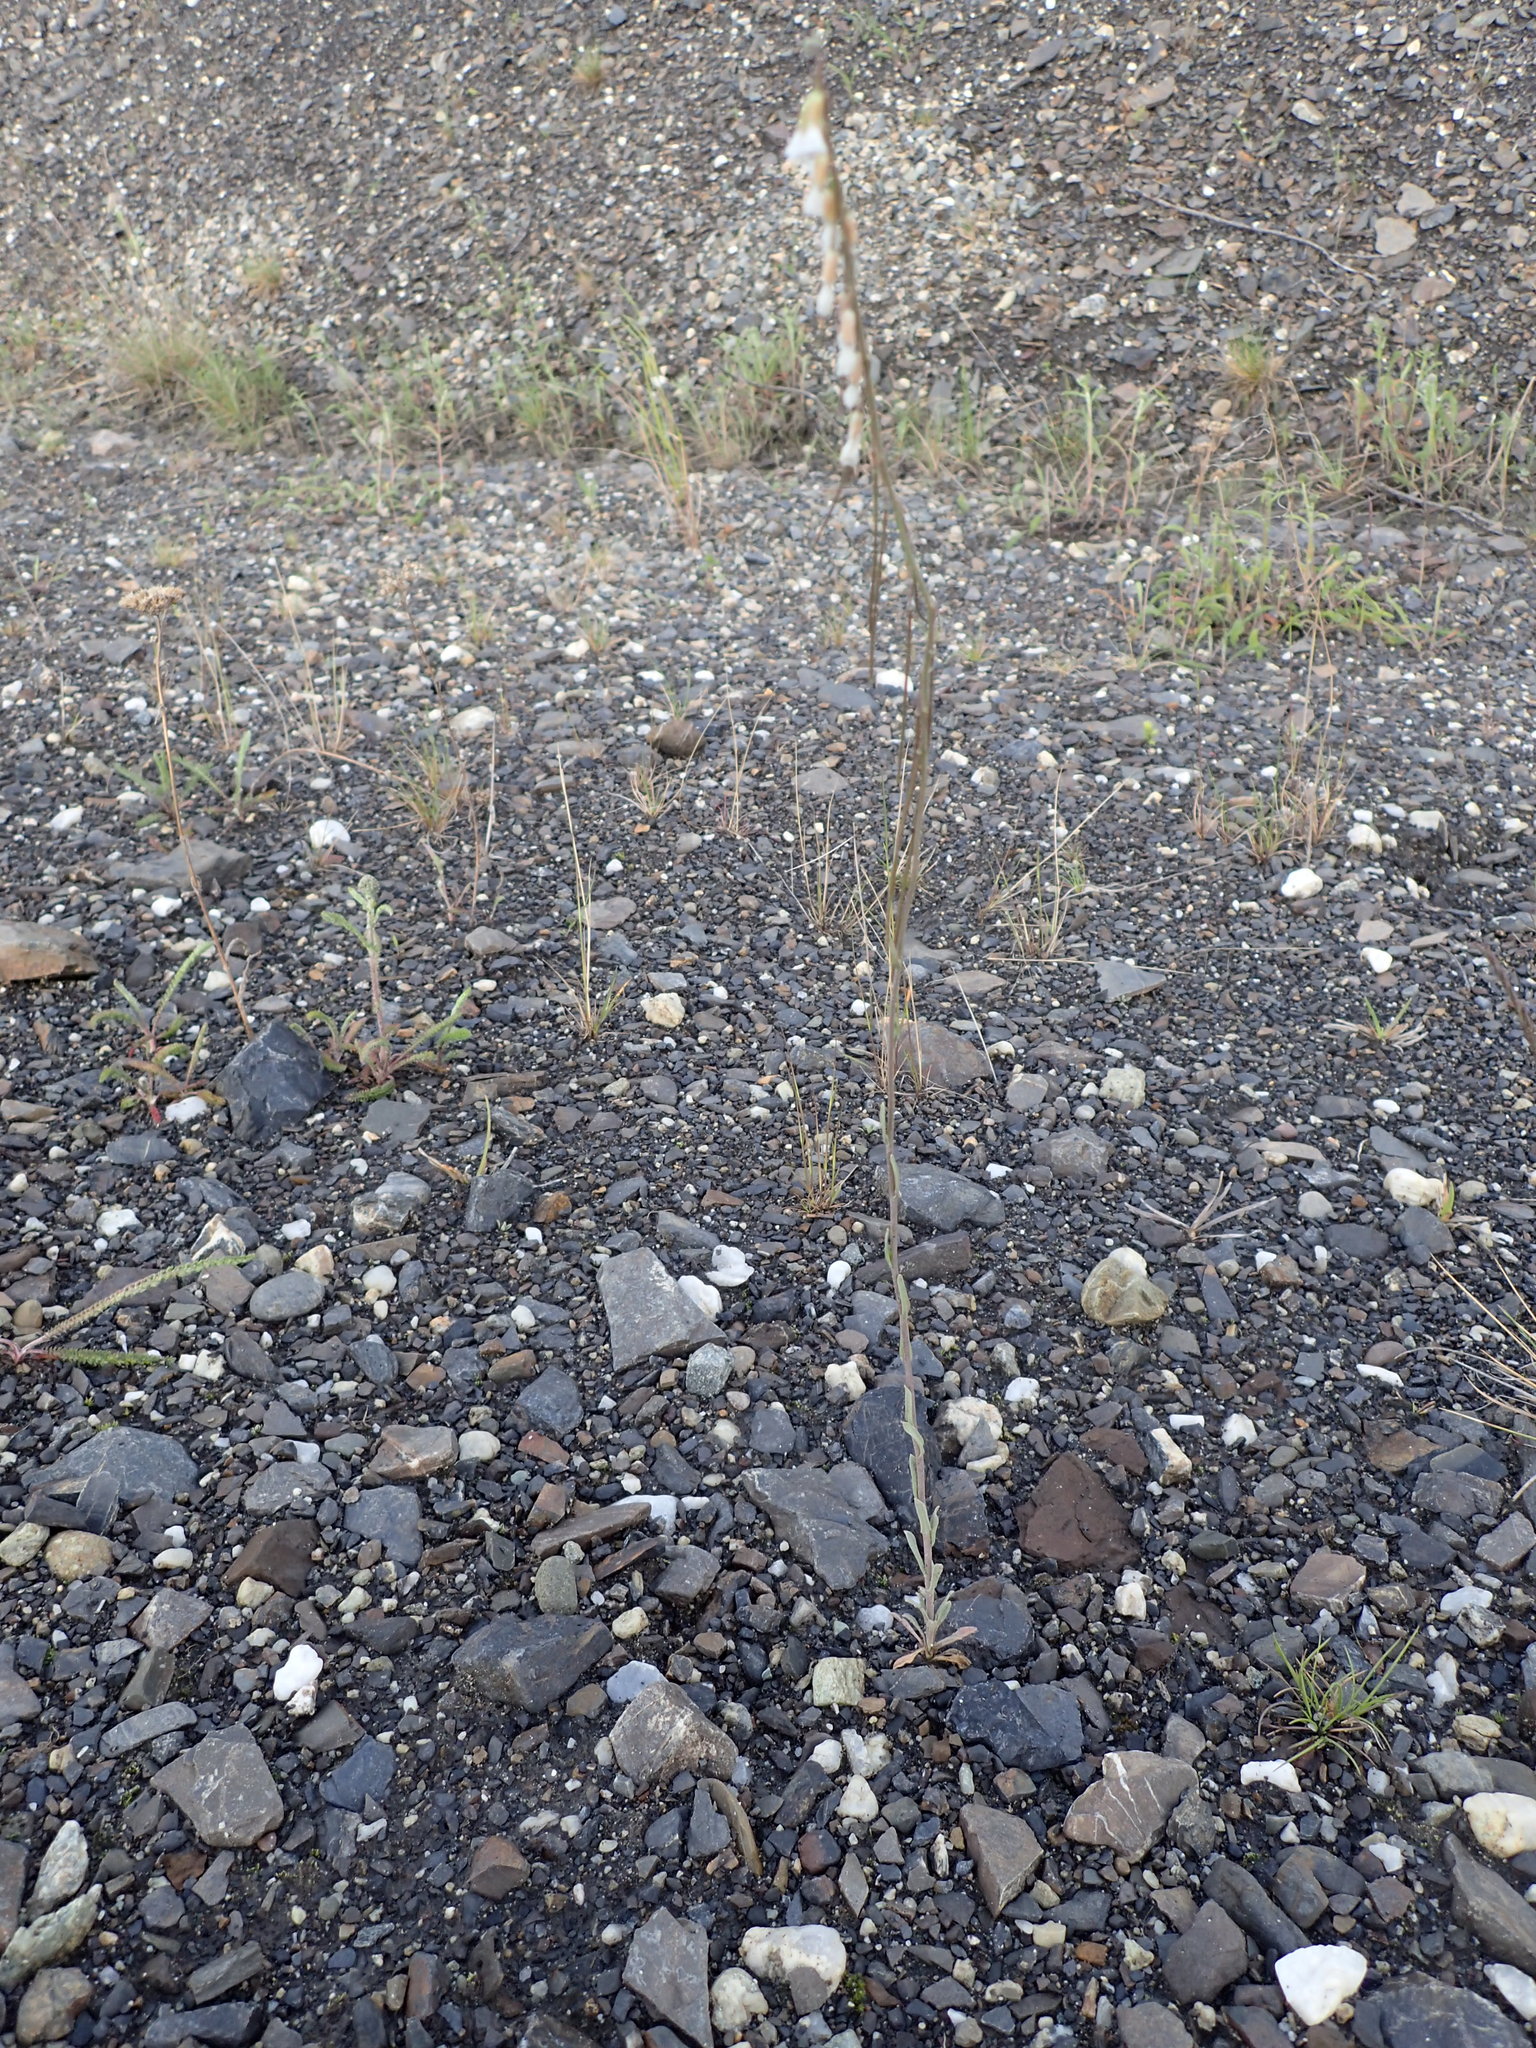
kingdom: Plantae
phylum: Tracheophyta
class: Magnoliopsida
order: Brassicales
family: Brassicaceae
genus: Boechera
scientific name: Boechera retrofracta
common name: Dangling suncress
